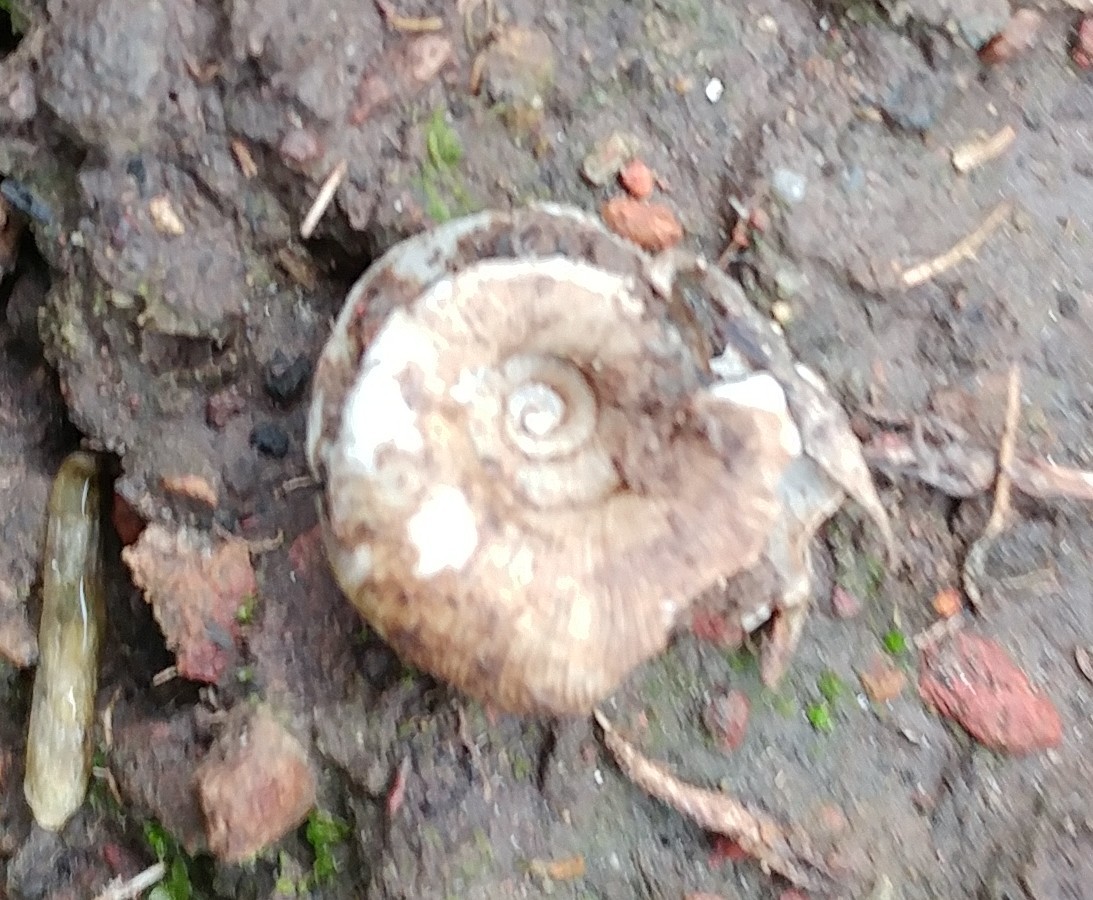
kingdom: Animalia
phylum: Mollusca
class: Gastropoda
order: Stylommatophora
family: Haplotrematidae
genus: Haplotrema
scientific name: Haplotrema transfuga
